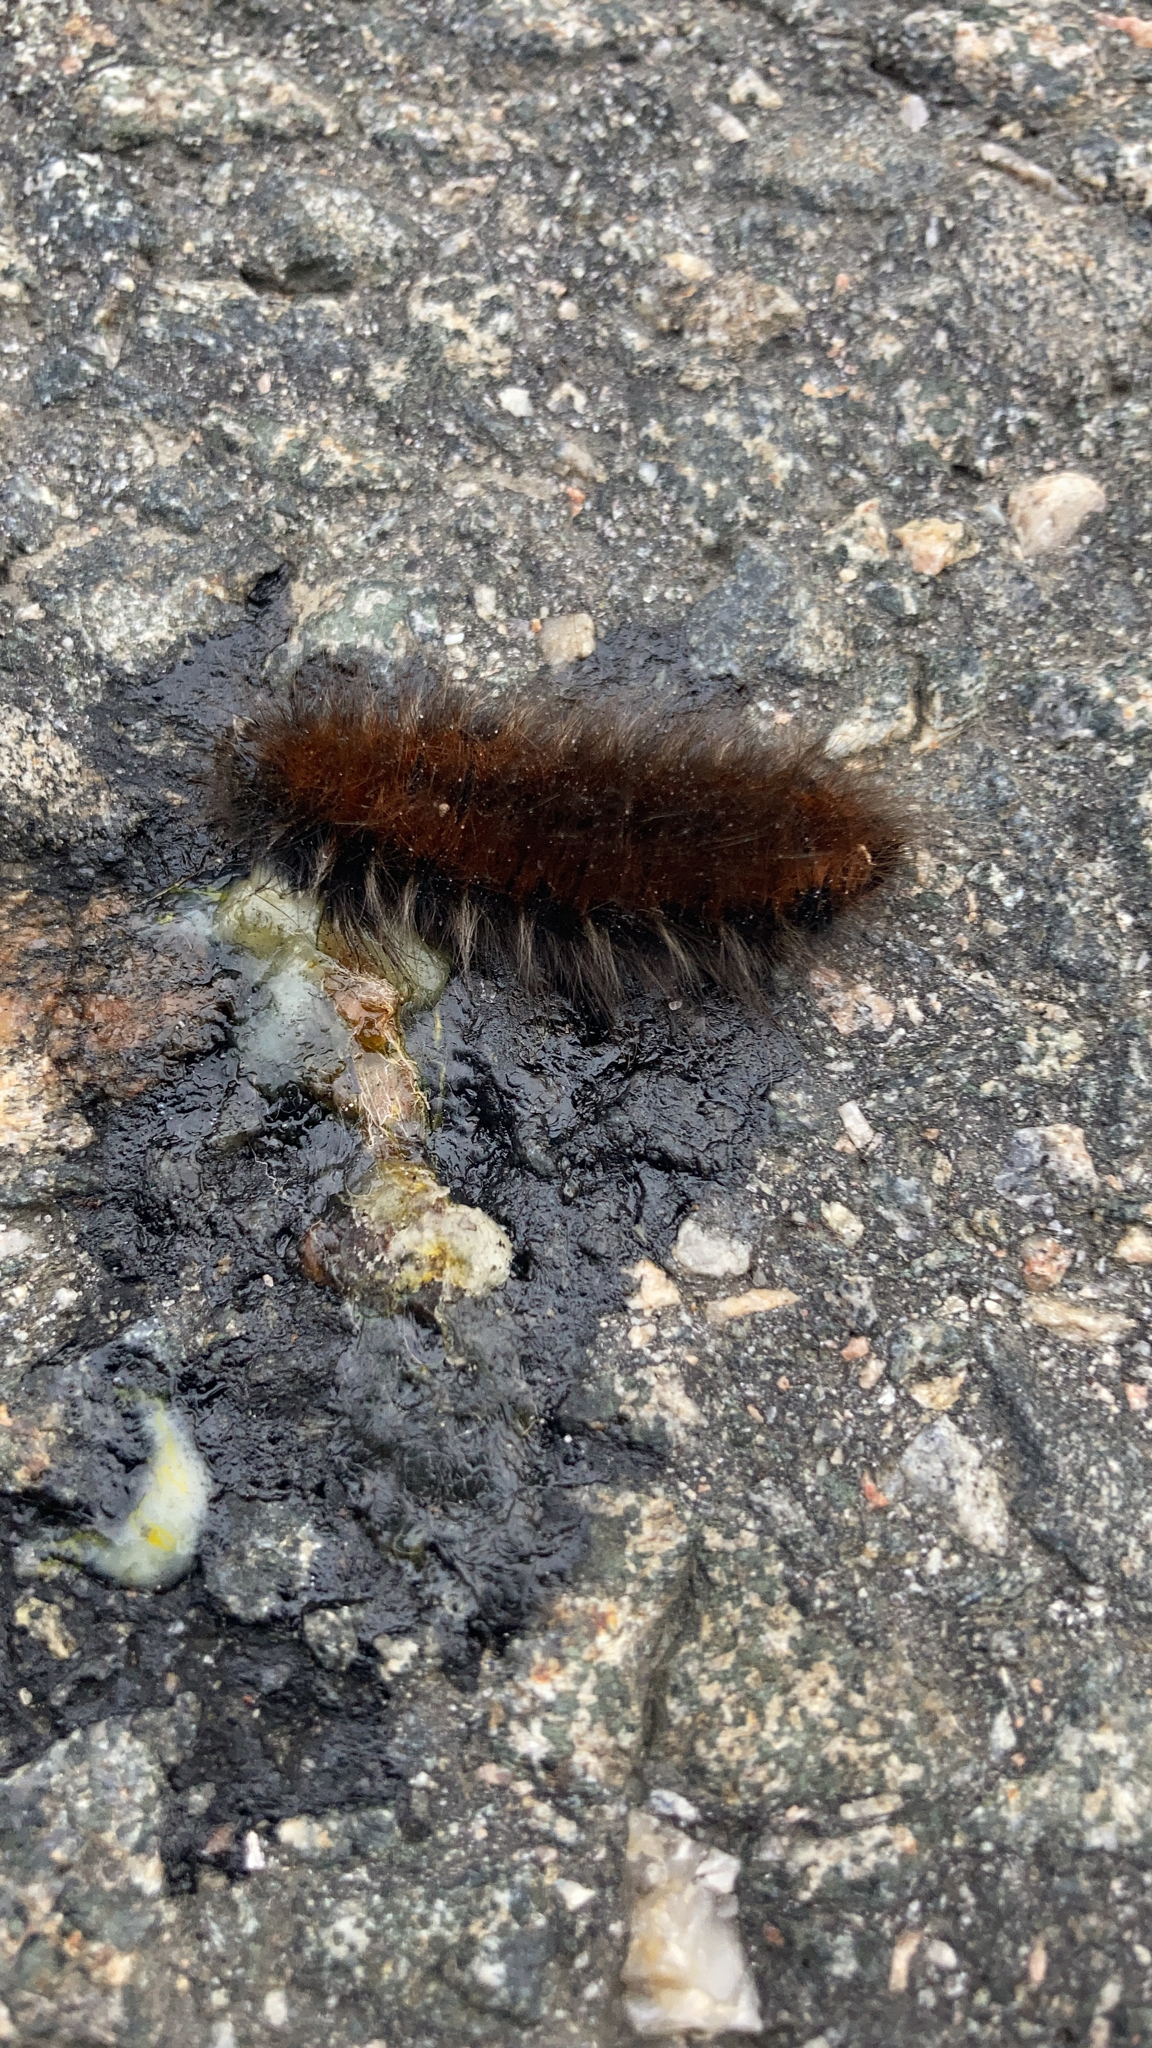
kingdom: Animalia
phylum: Arthropoda
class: Insecta
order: Lepidoptera
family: Lasiocampidae
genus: Macrothylacia
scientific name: Macrothylacia rubi
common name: Fox moth
